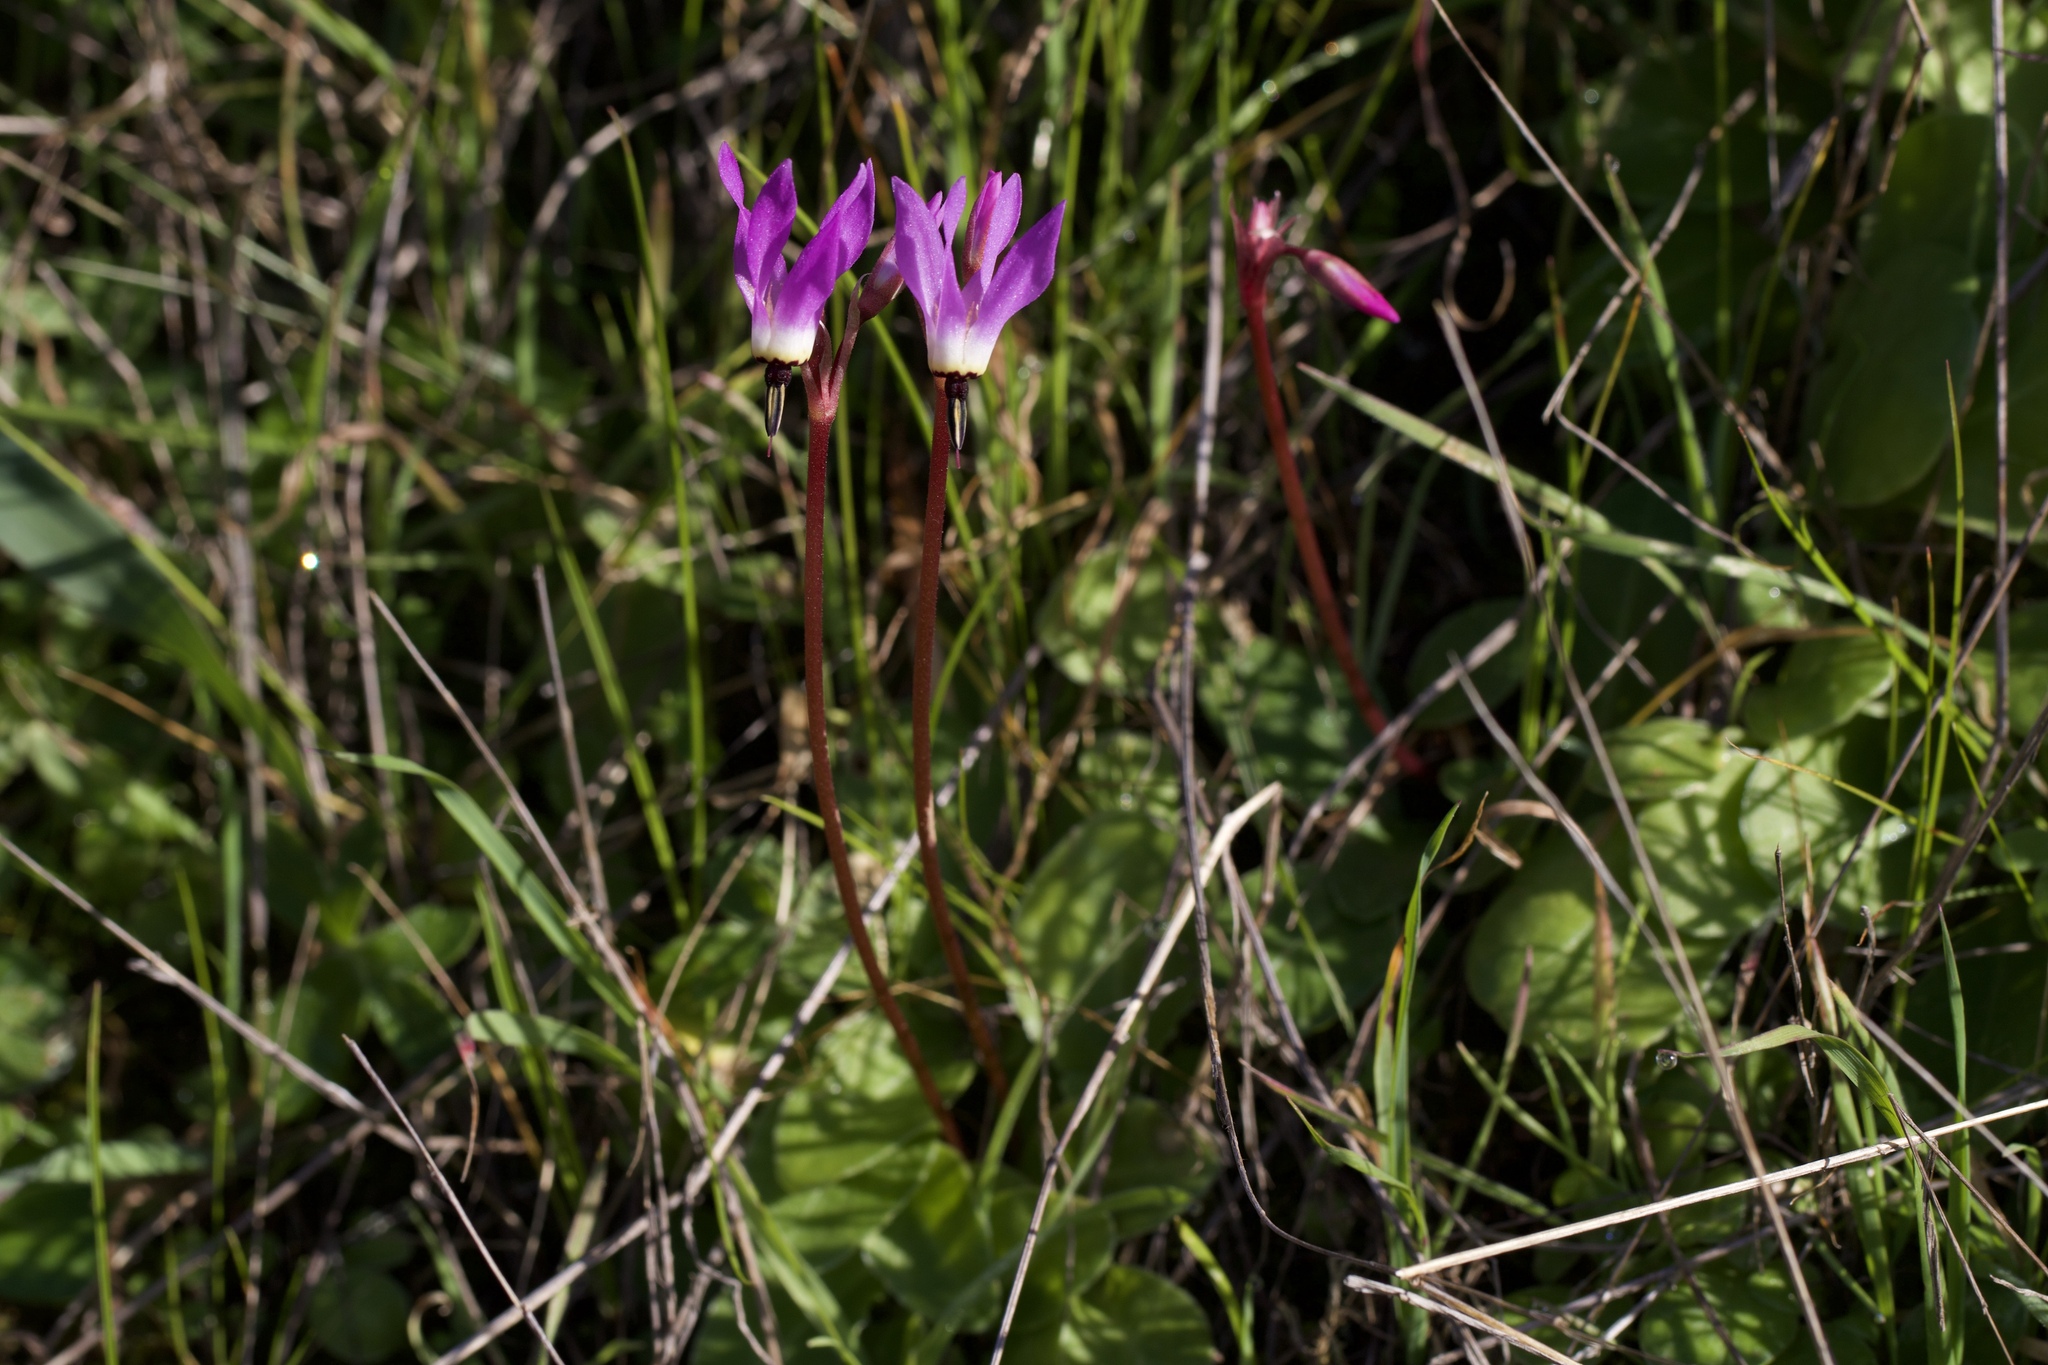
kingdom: Plantae
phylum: Tracheophyta
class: Magnoliopsida
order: Ericales
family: Primulaceae
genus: Dodecatheon
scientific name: Dodecatheon hendersonii
